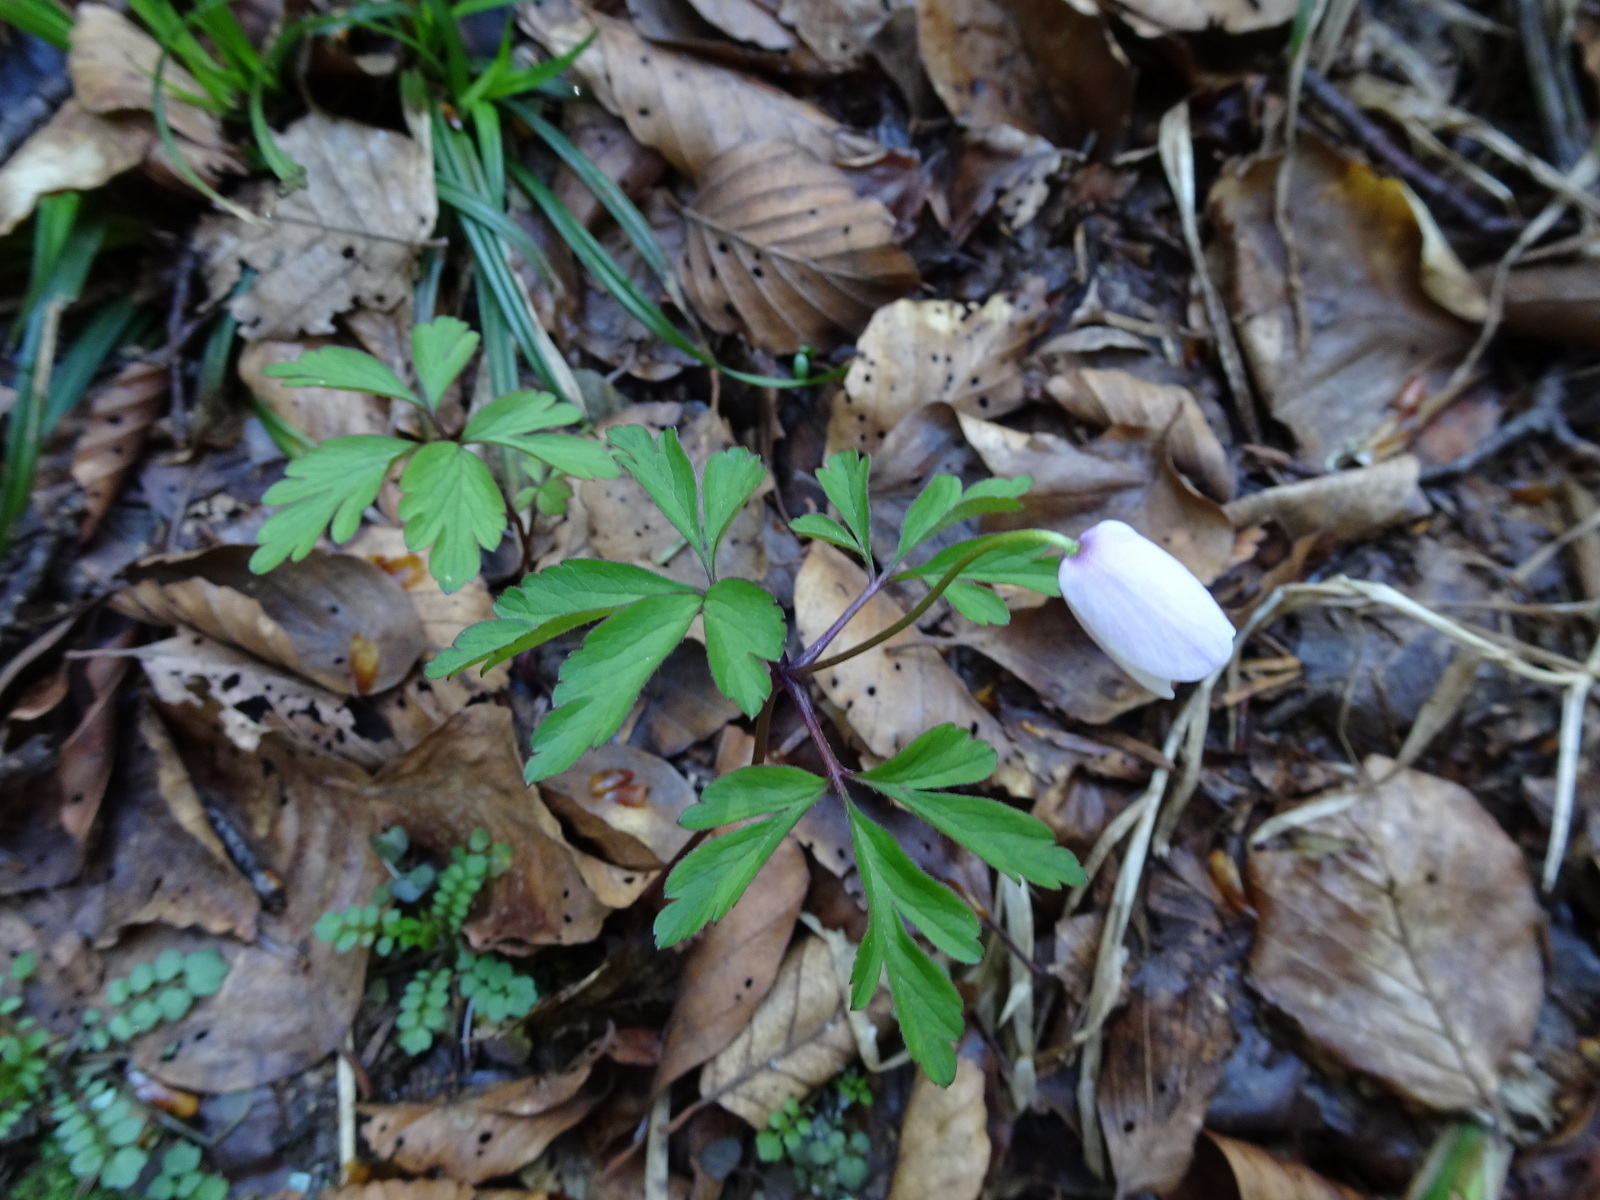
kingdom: Plantae
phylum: Tracheophyta
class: Magnoliopsida
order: Ranunculales
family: Ranunculaceae
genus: Anemone
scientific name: Anemone nemorosa
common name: Wood anemone
